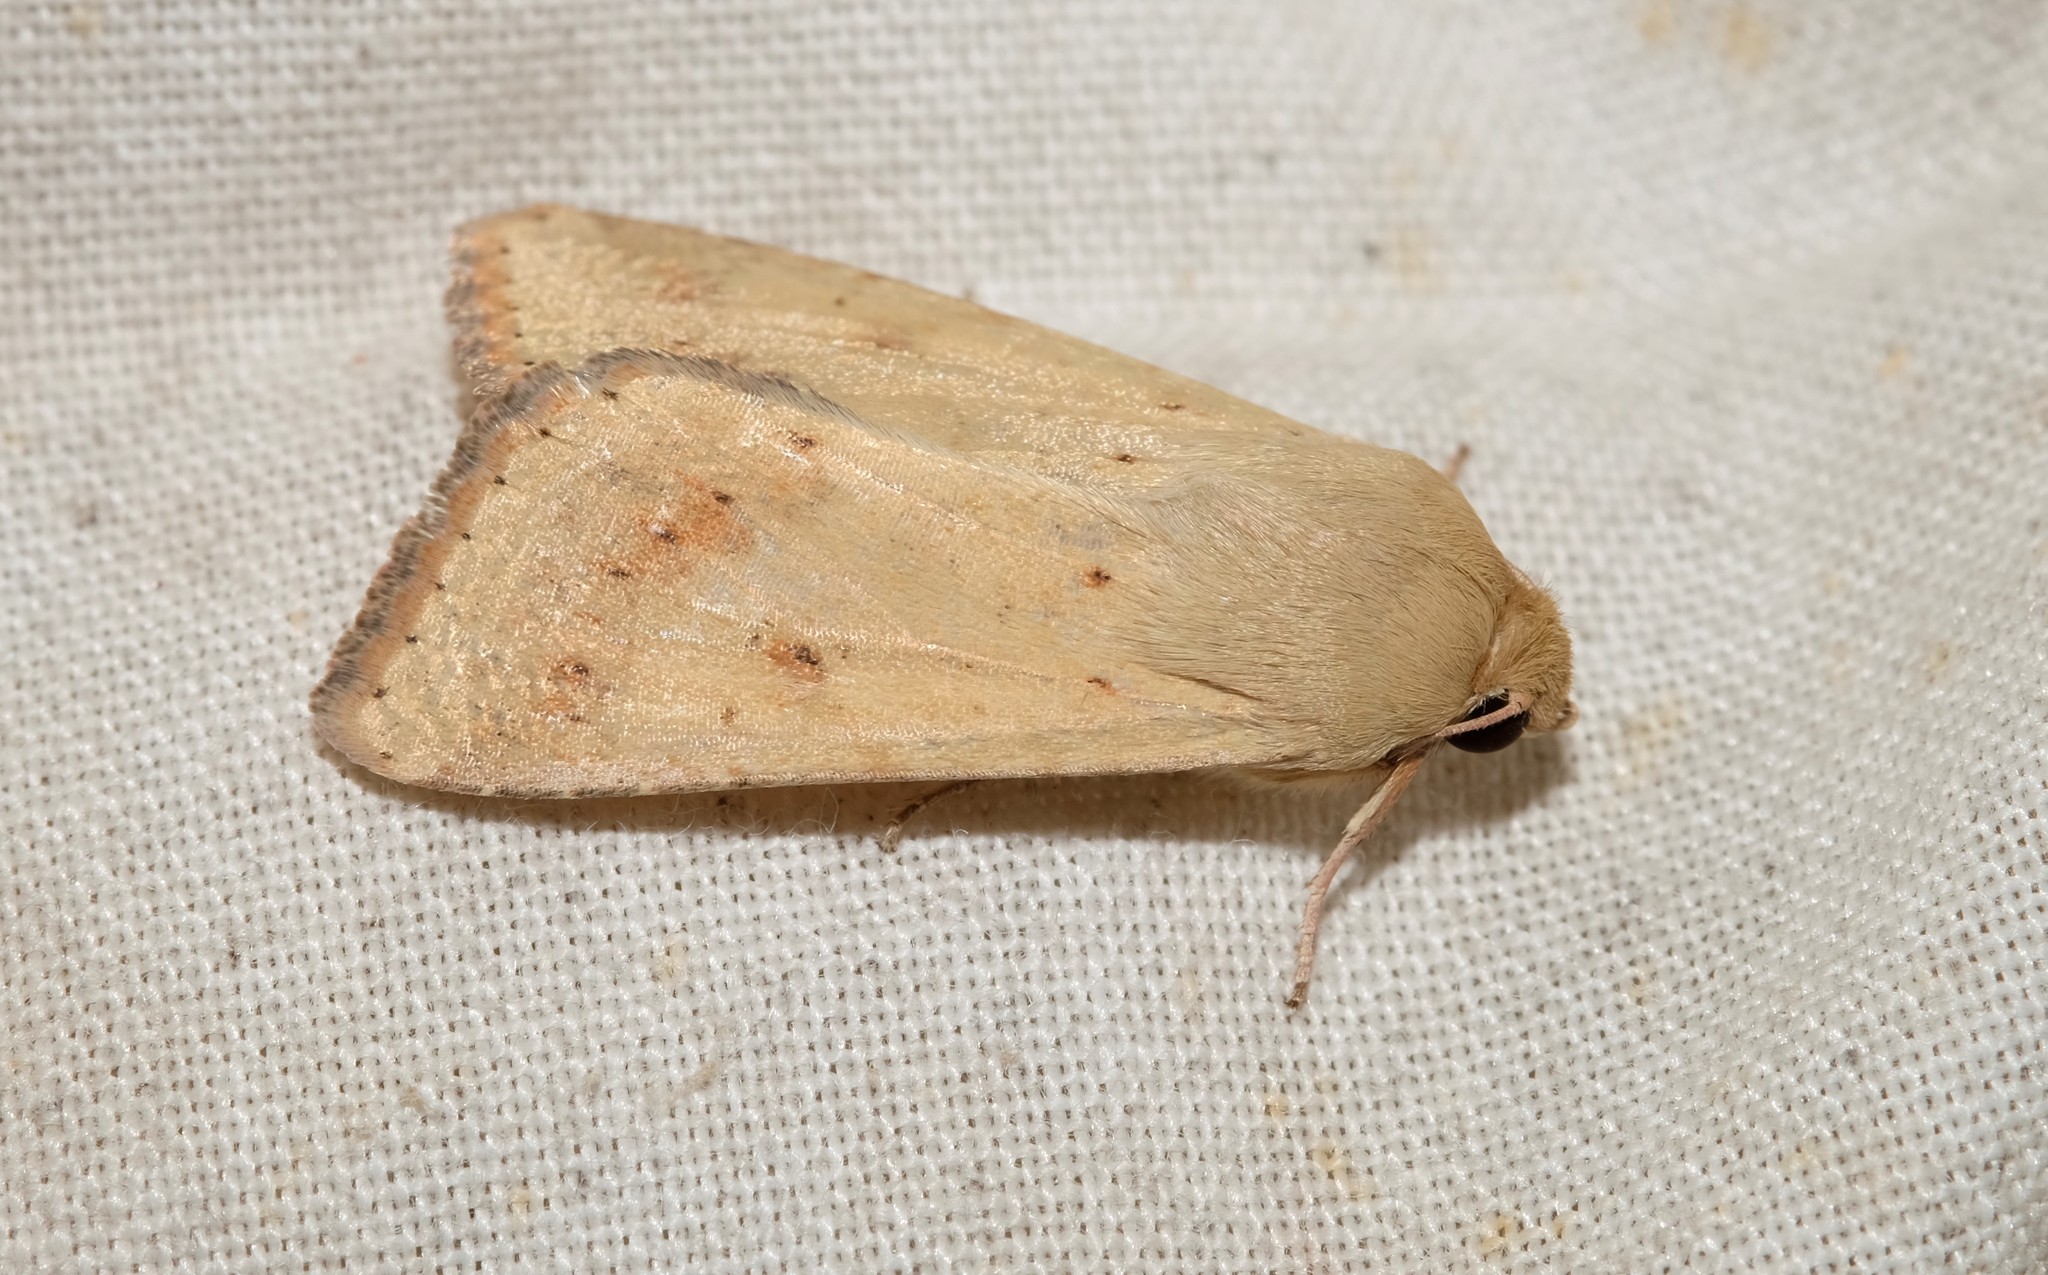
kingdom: Animalia
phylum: Arthropoda
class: Insecta
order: Lepidoptera
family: Noctuidae
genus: Helicoverpa
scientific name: Helicoverpa punctigera
